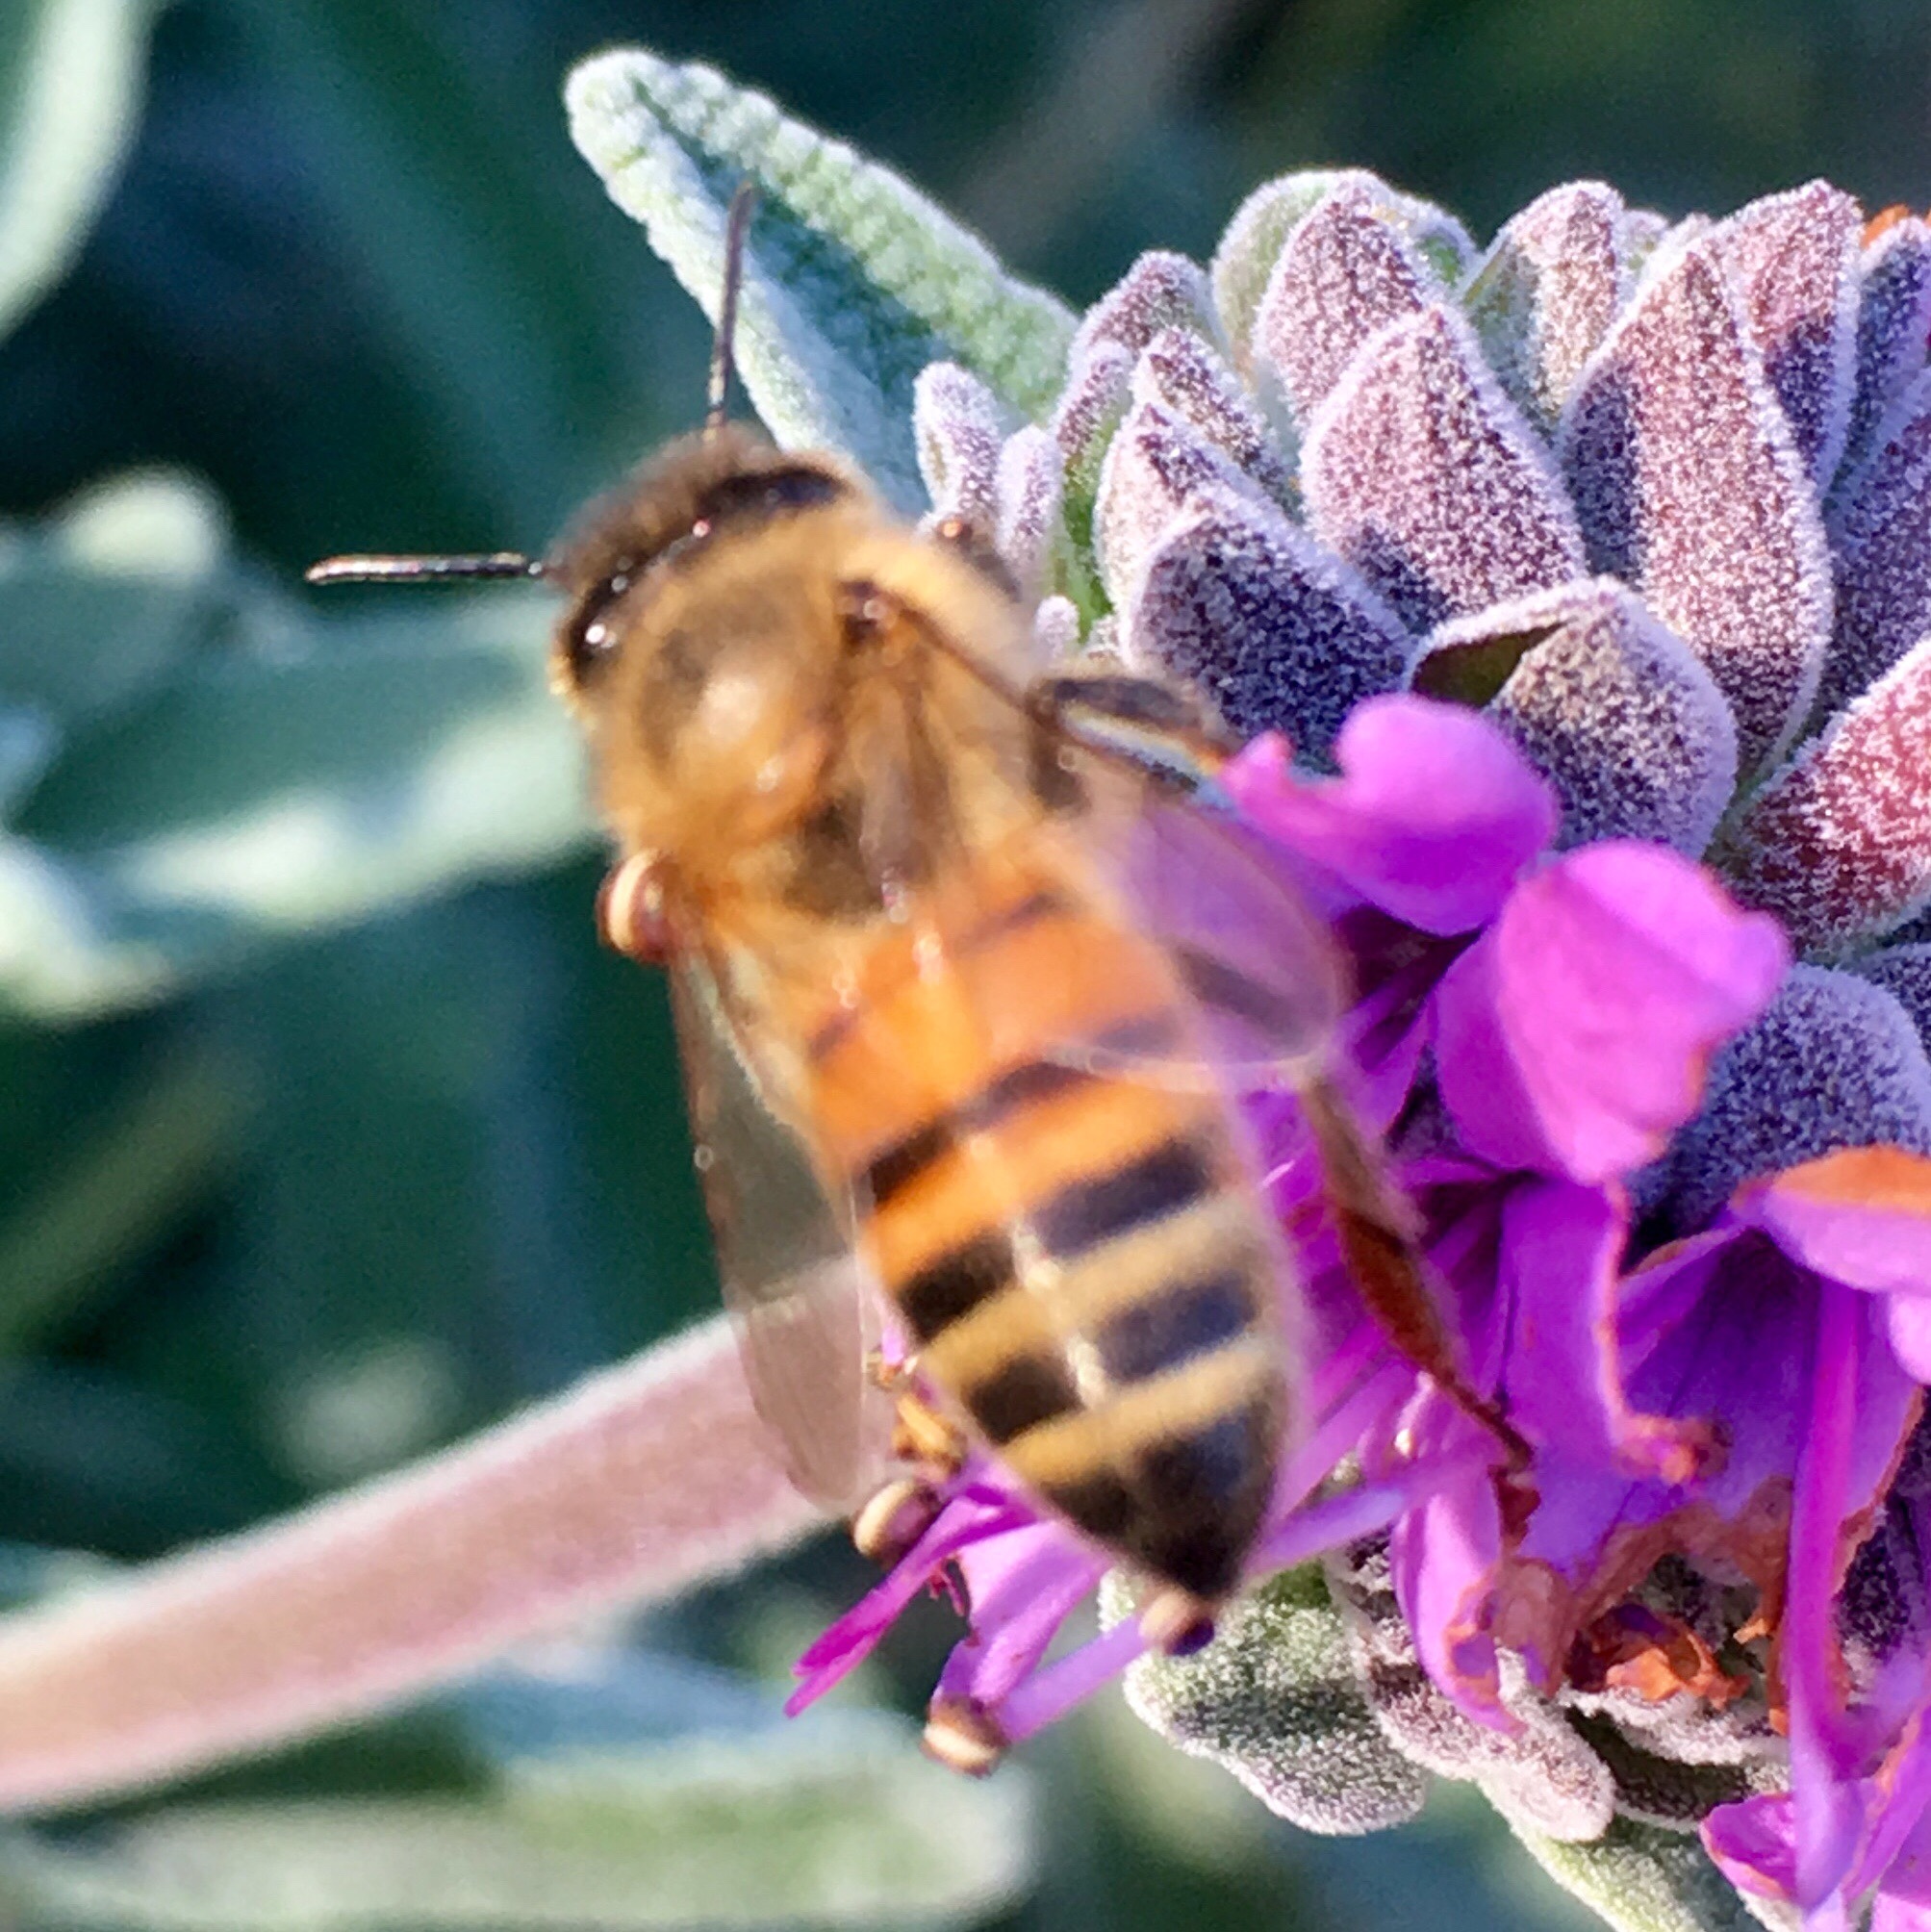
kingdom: Animalia
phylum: Arthropoda
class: Insecta
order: Hymenoptera
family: Apidae
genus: Apis
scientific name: Apis mellifera
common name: Honey bee
